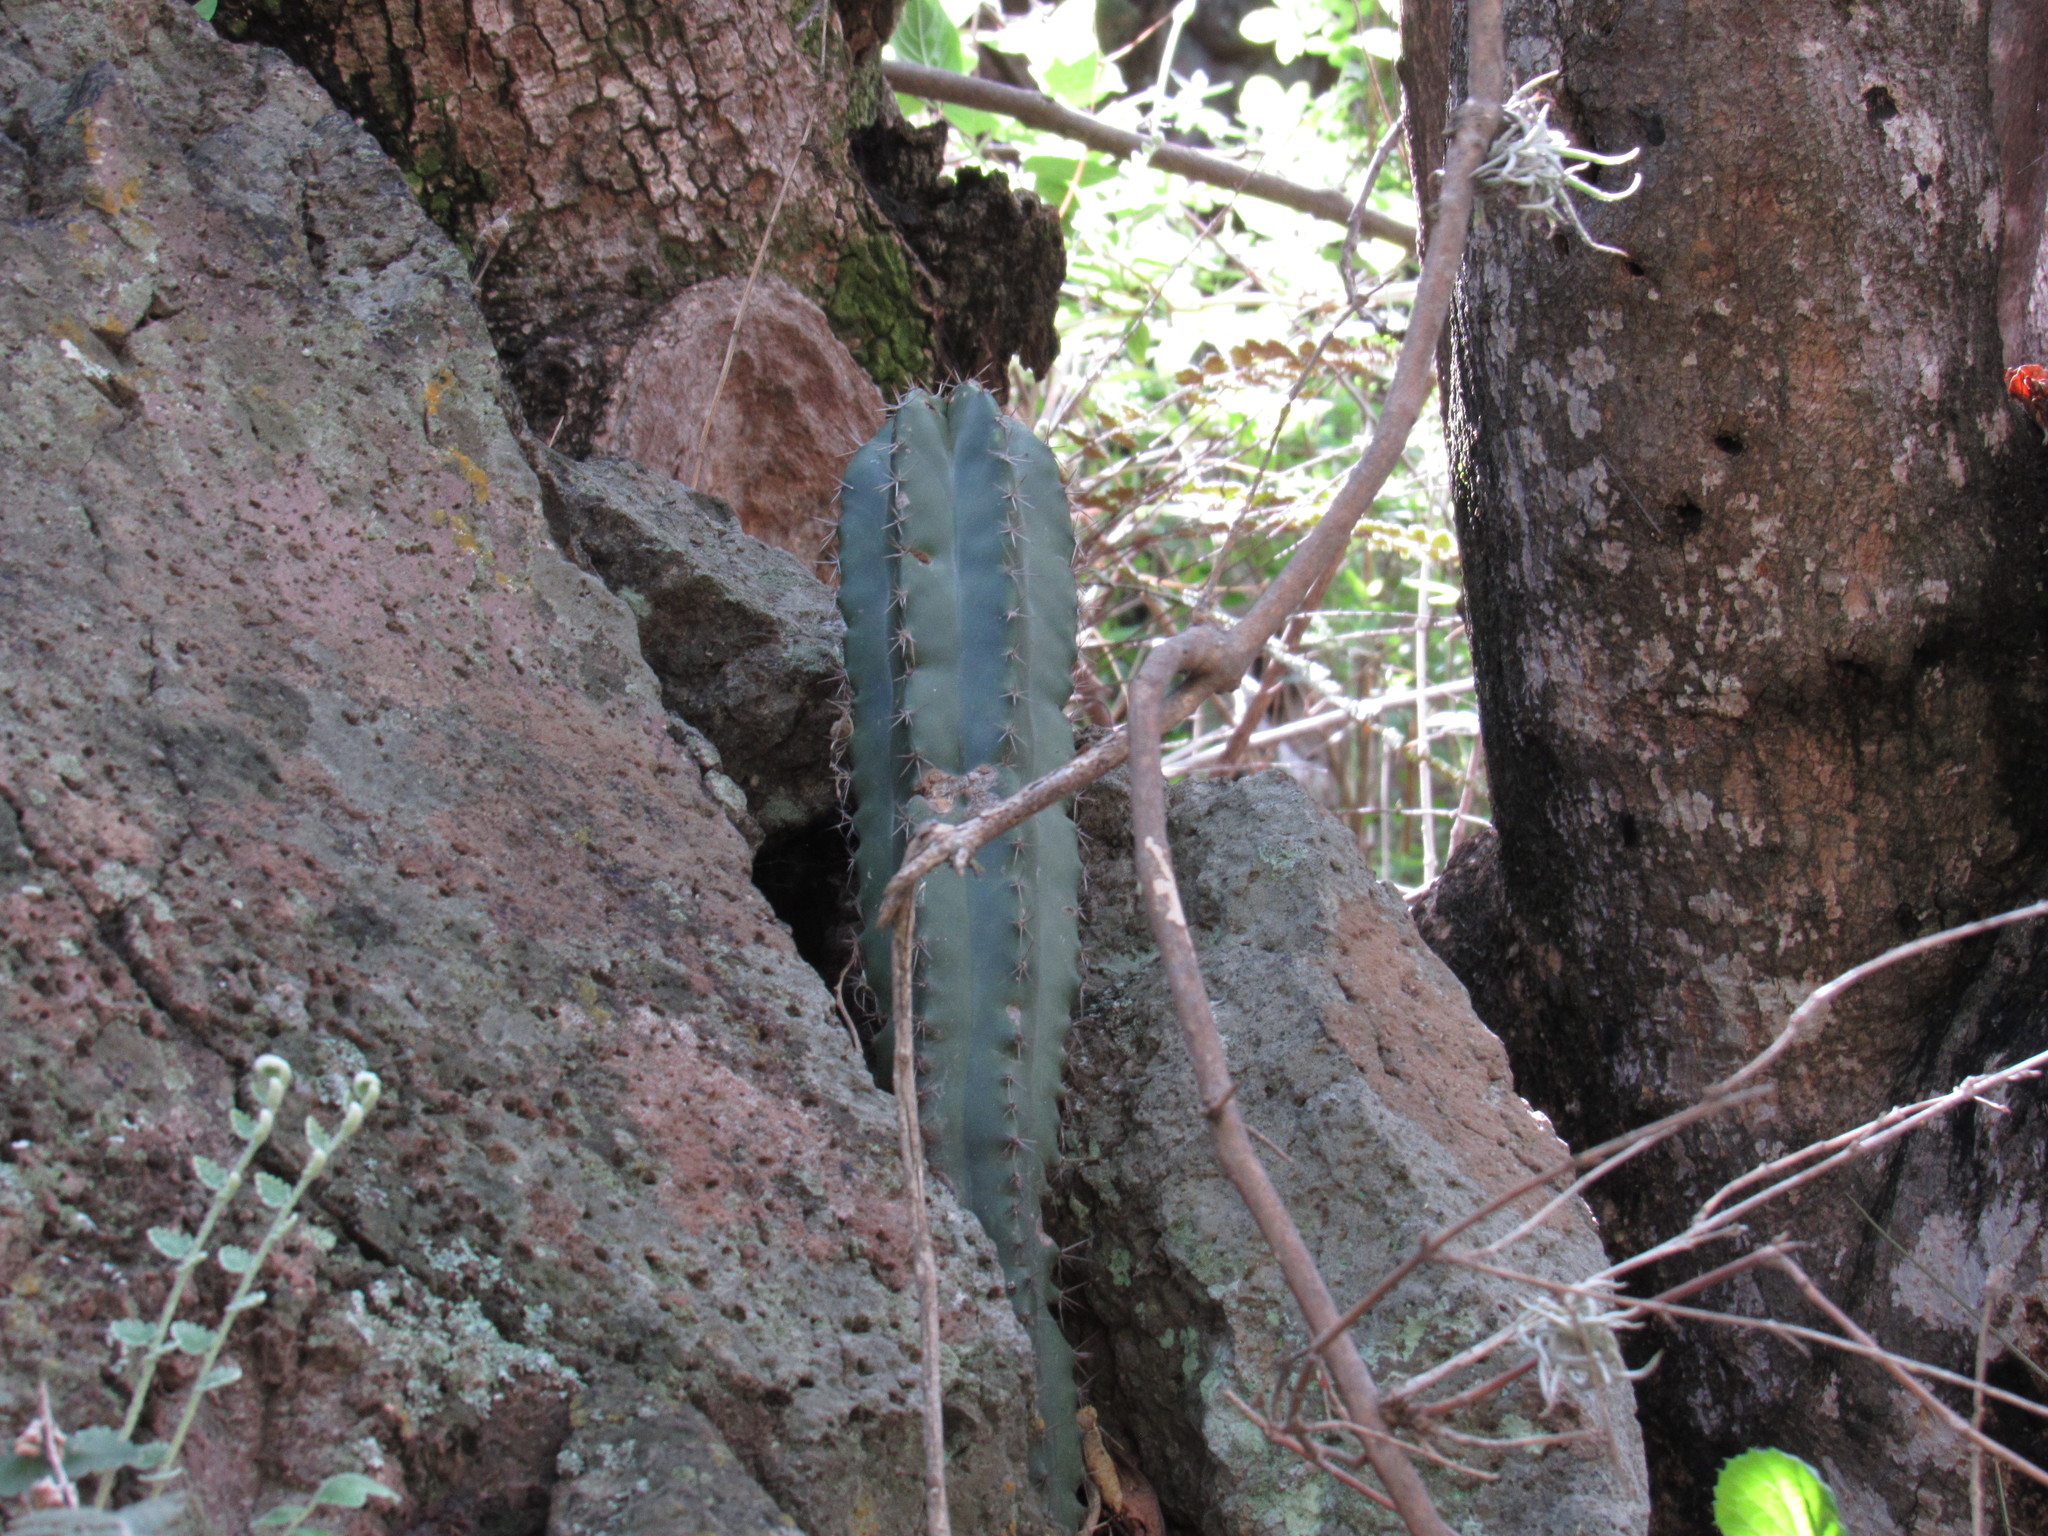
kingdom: Plantae
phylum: Tracheophyta
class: Magnoliopsida
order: Caryophyllales
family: Cactaceae
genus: Stenocereus
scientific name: Stenocereus queretaroensis
